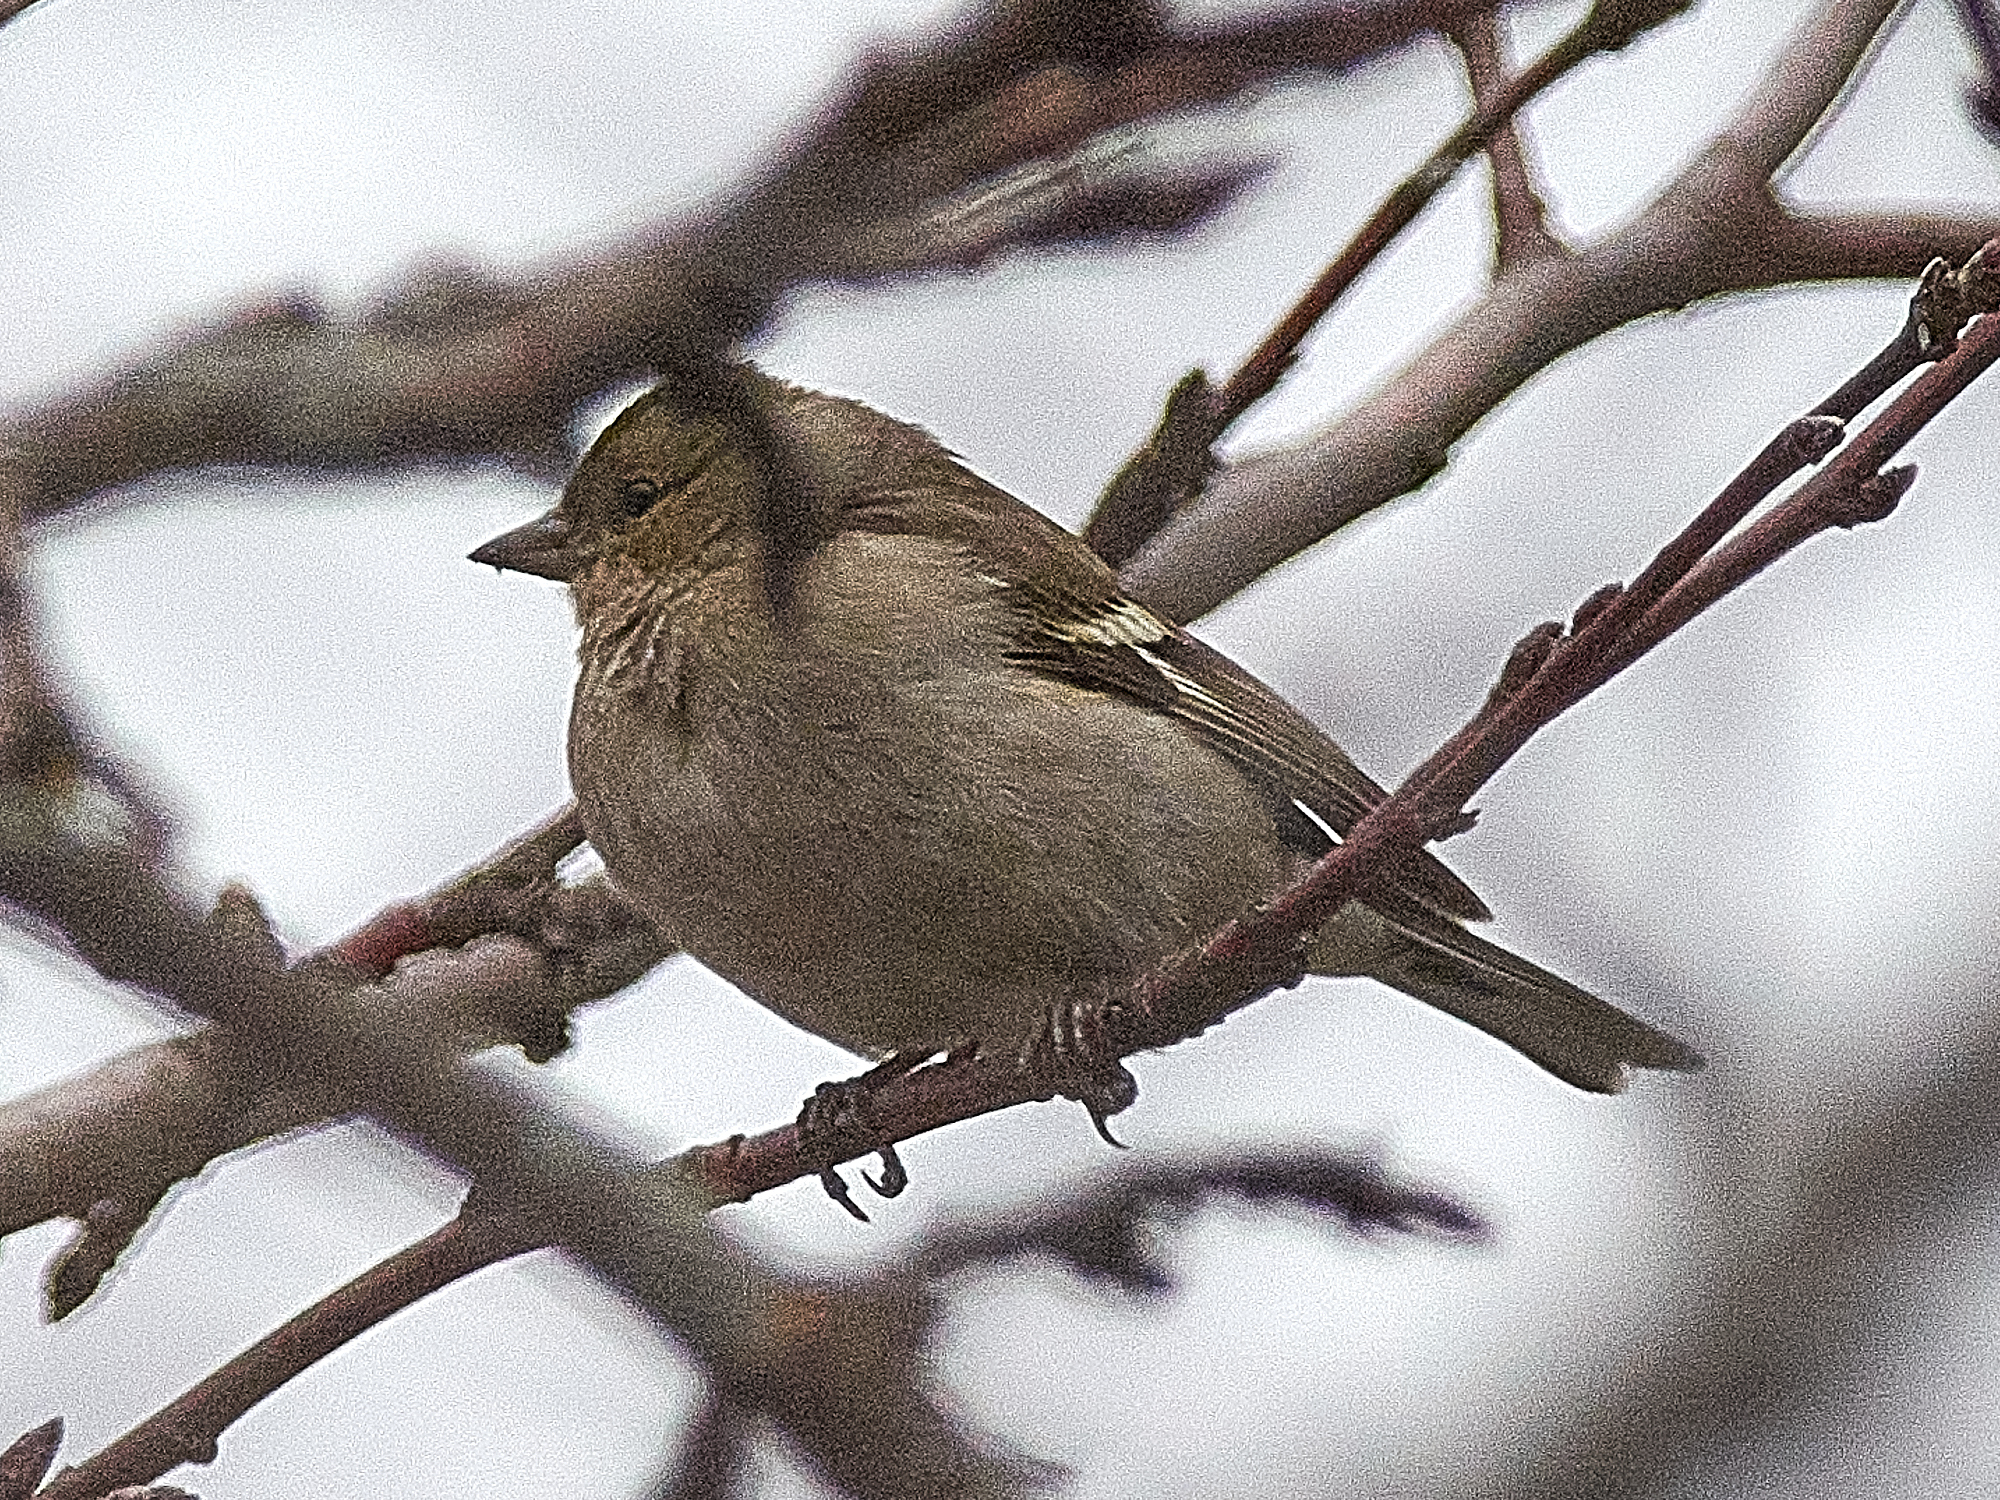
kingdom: Animalia
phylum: Chordata
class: Aves
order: Passeriformes
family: Fringillidae
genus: Fringilla
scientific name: Fringilla coelebs
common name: Common chaffinch
